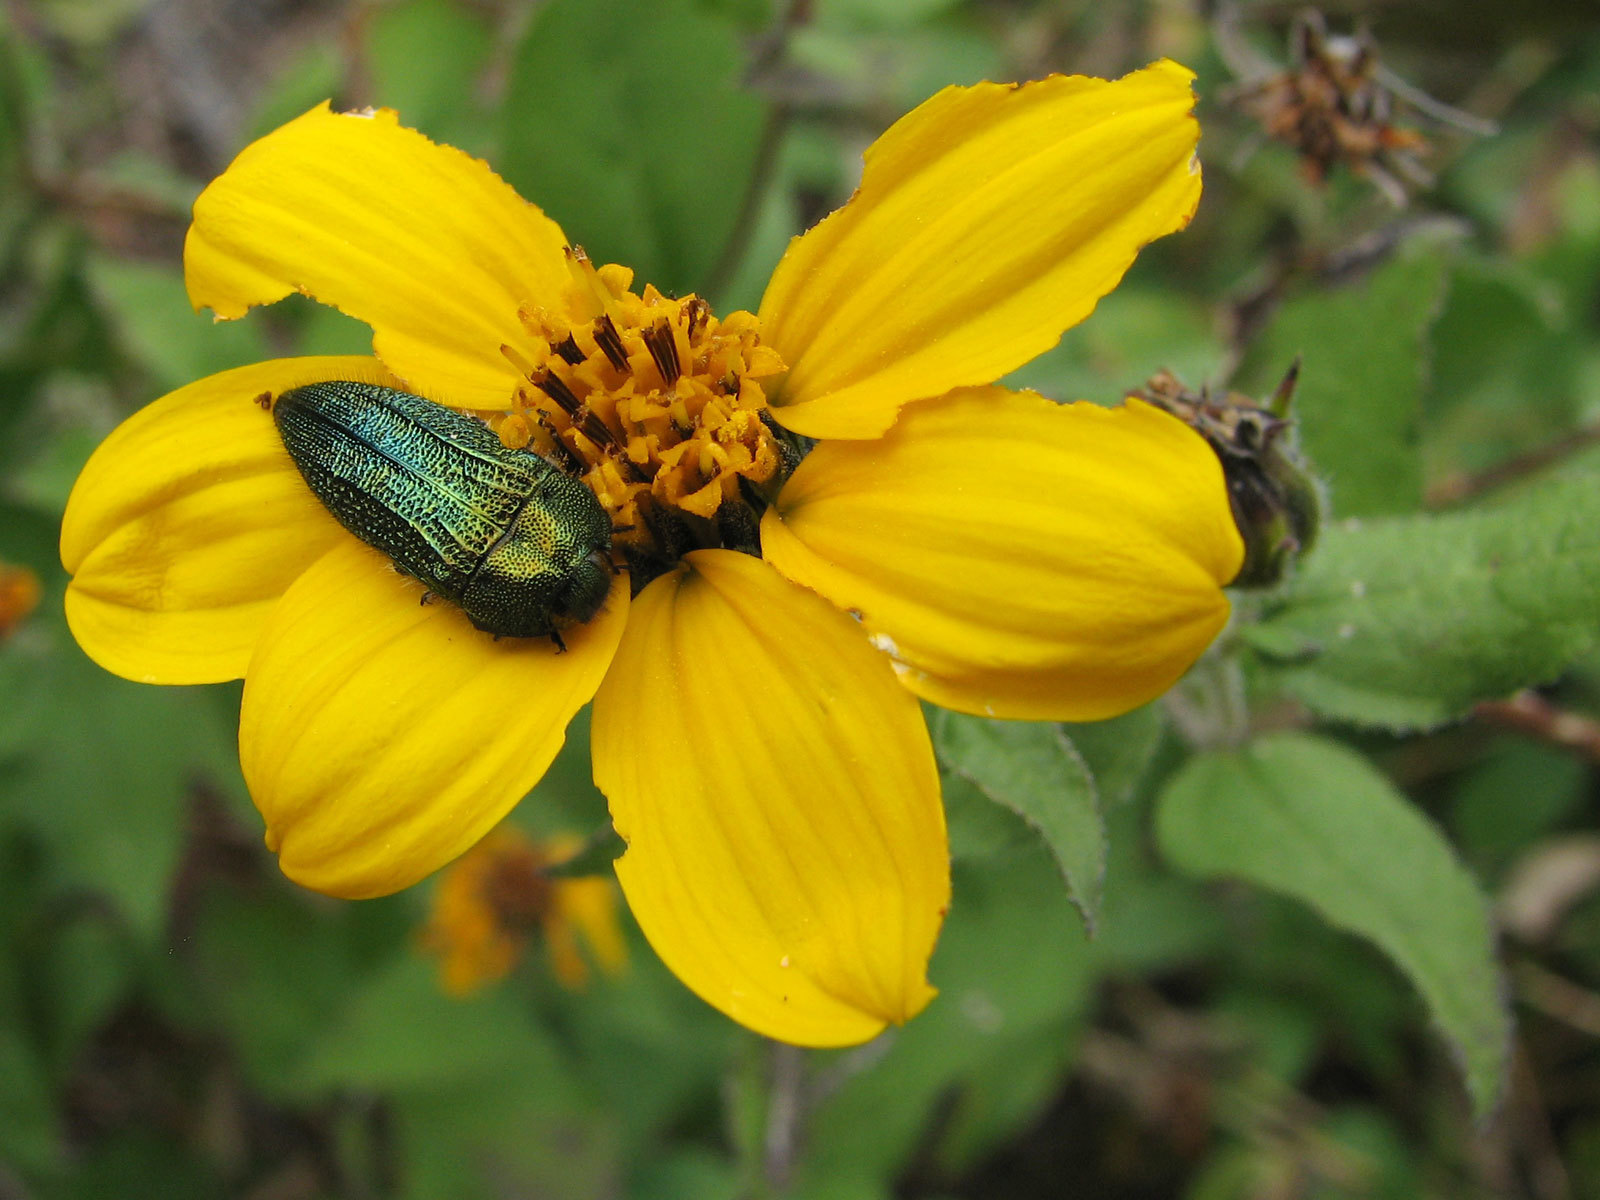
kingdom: Animalia
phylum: Arthropoda
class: Insecta
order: Coleoptera
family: Buprestidae
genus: Acmaeodera
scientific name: Acmaeodera resplendens
